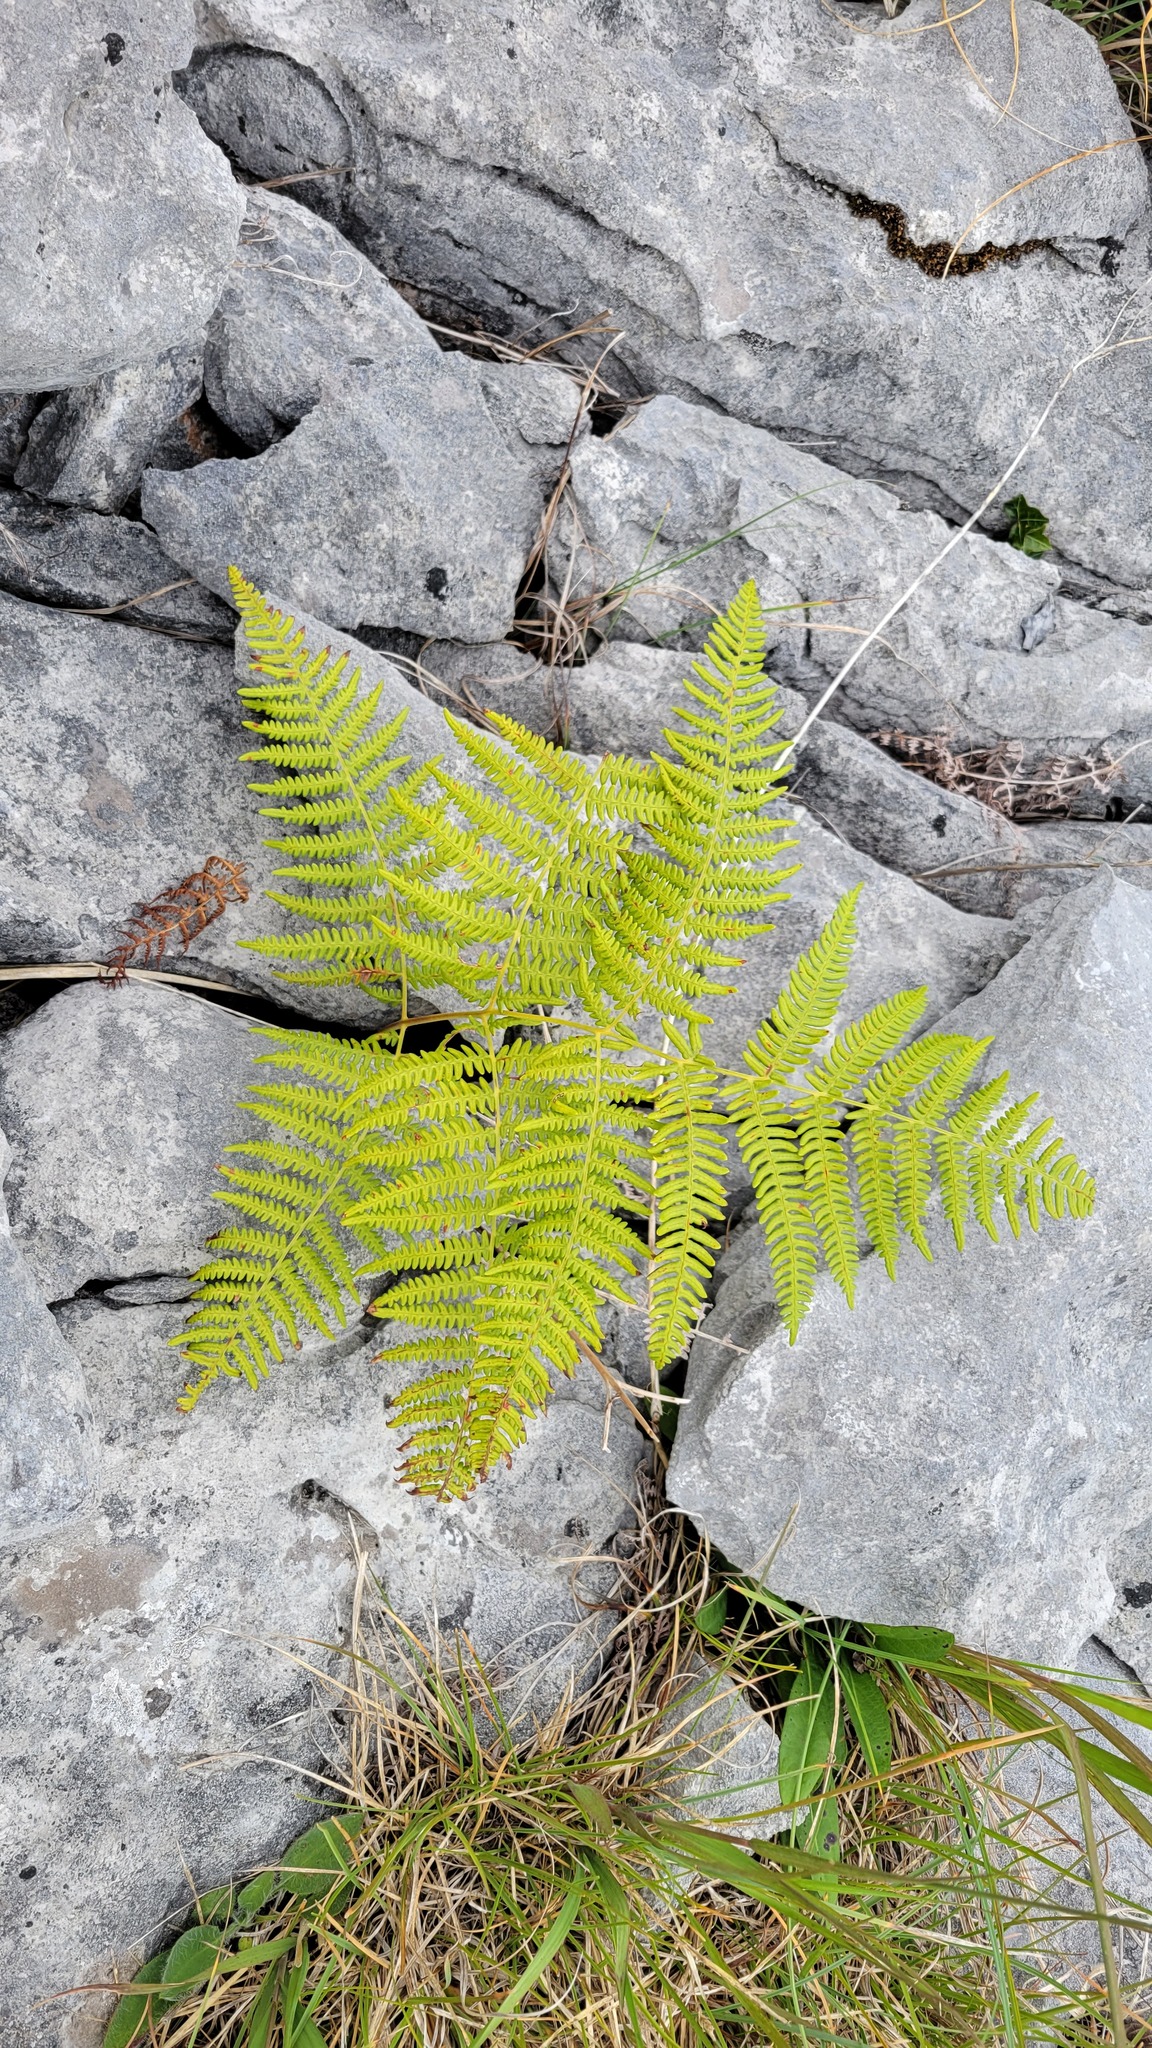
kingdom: Plantae
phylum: Tracheophyta
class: Polypodiopsida
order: Polypodiales
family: Dennstaedtiaceae
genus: Pteridium
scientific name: Pteridium aquilinum
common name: Bracken
